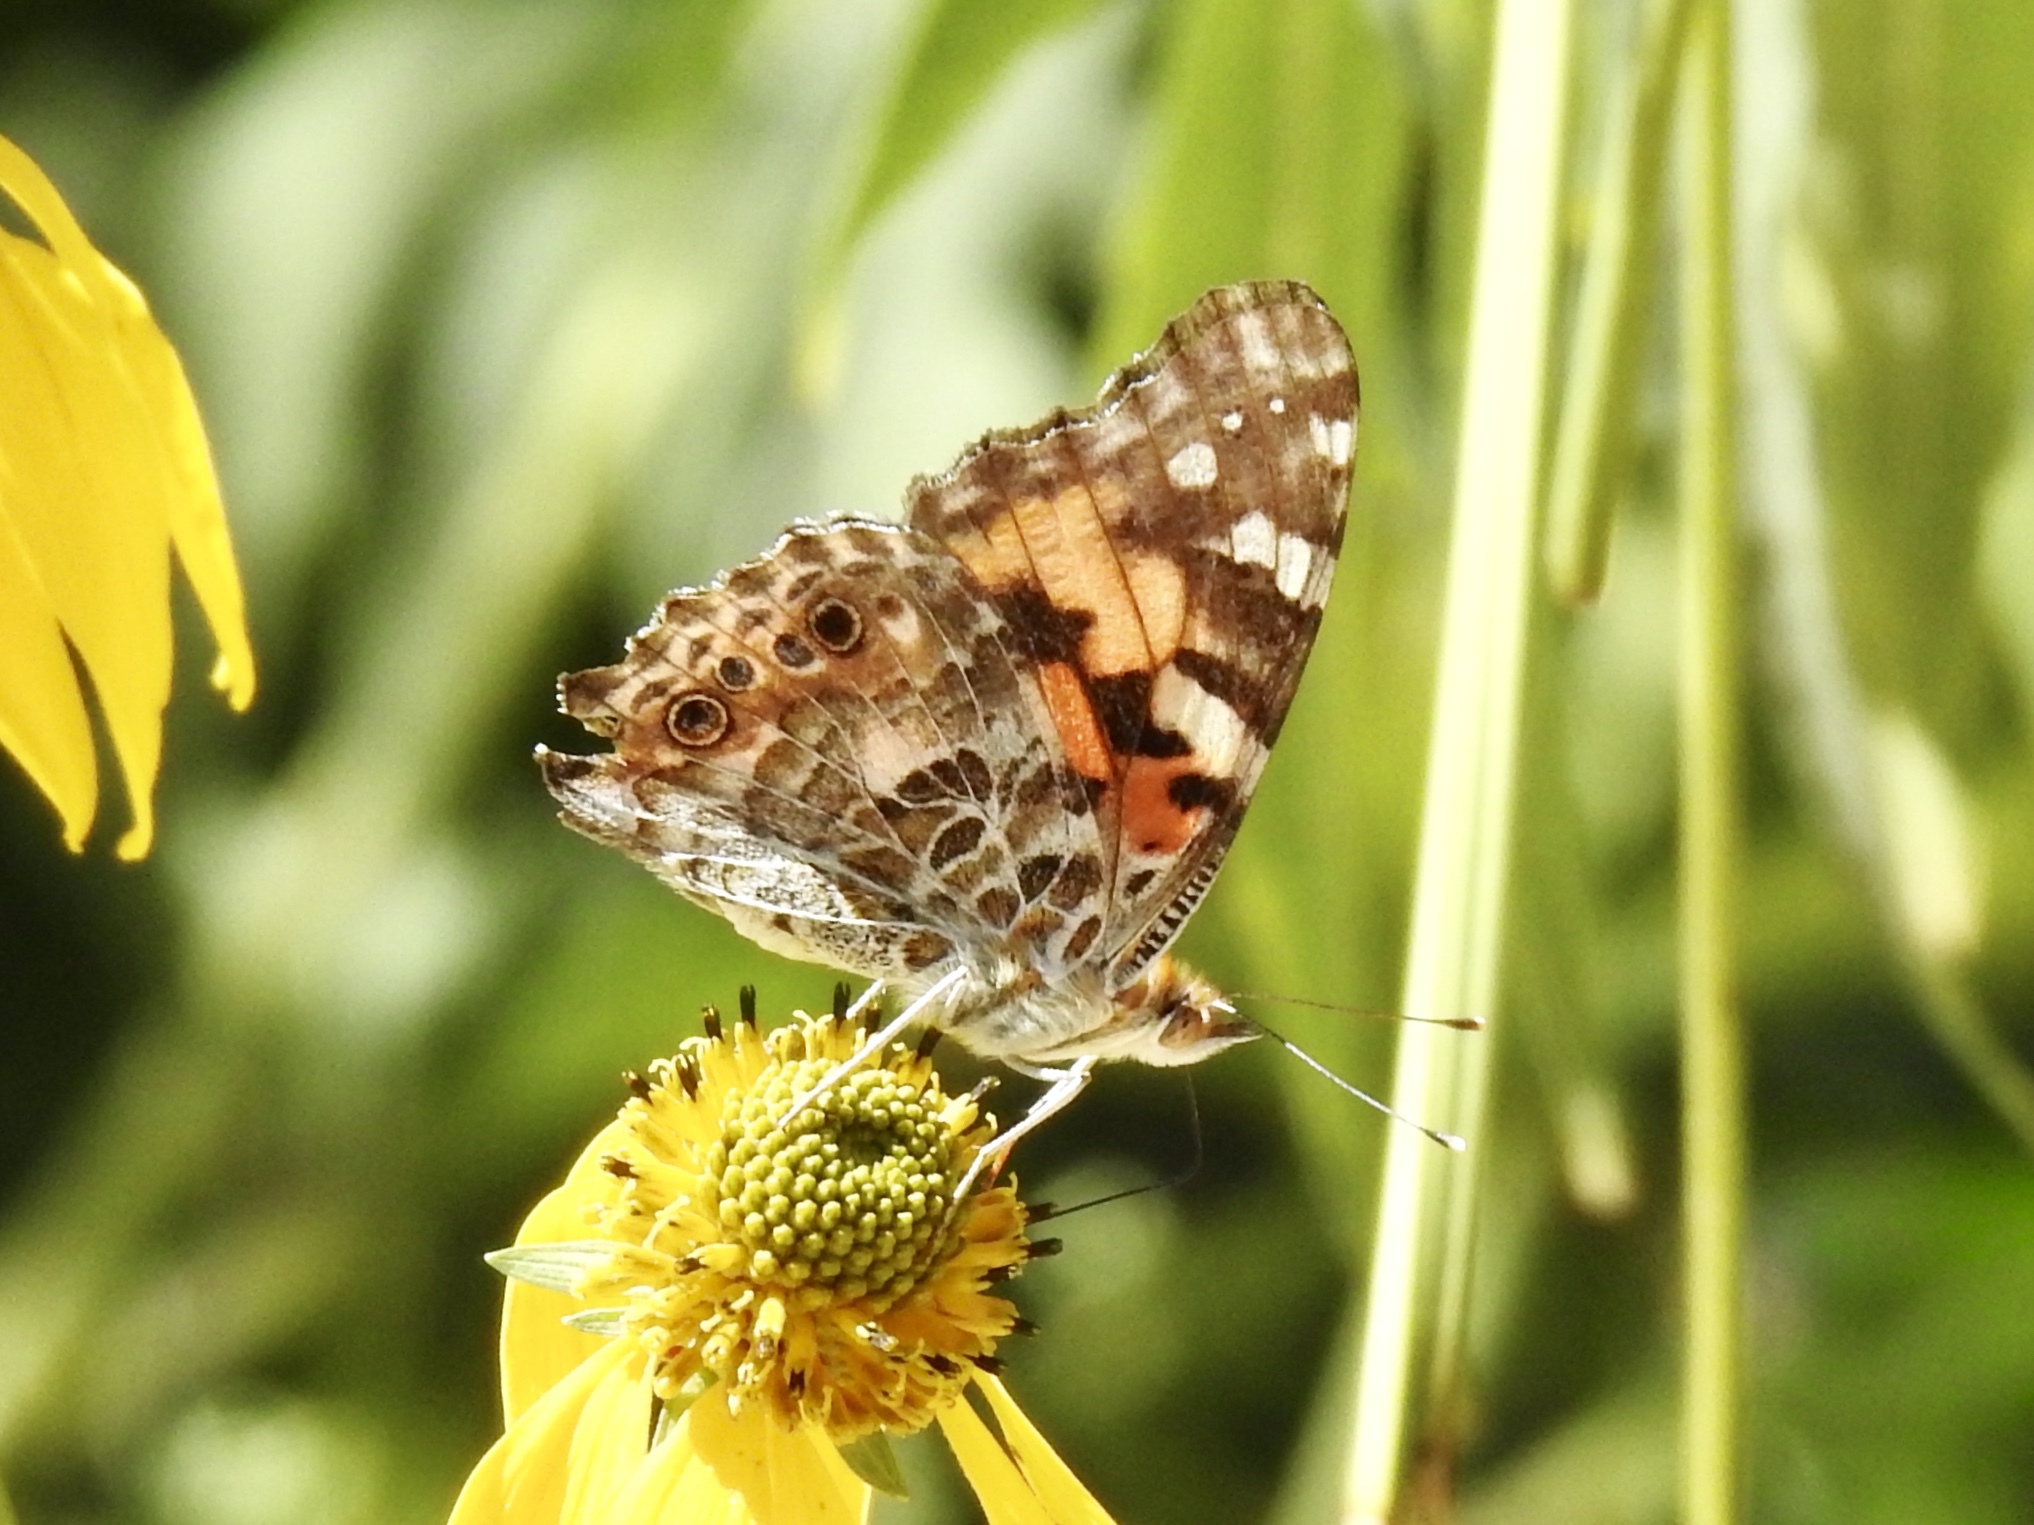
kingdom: Animalia
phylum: Arthropoda
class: Insecta
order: Lepidoptera
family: Nymphalidae
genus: Vanessa
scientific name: Vanessa cardui
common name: Painted lady
